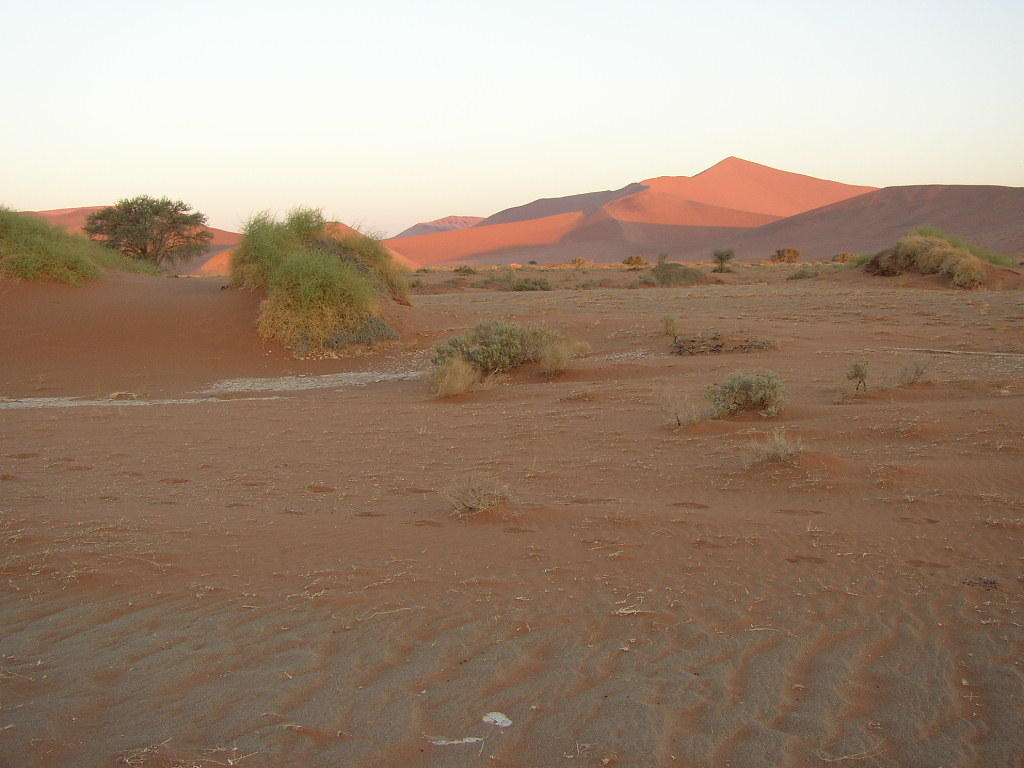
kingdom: Plantae
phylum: Tracheophyta
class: Magnoliopsida
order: Cucurbitales
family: Cucurbitaceae
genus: Acanthosicyos
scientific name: Acanthosicyos horridus
